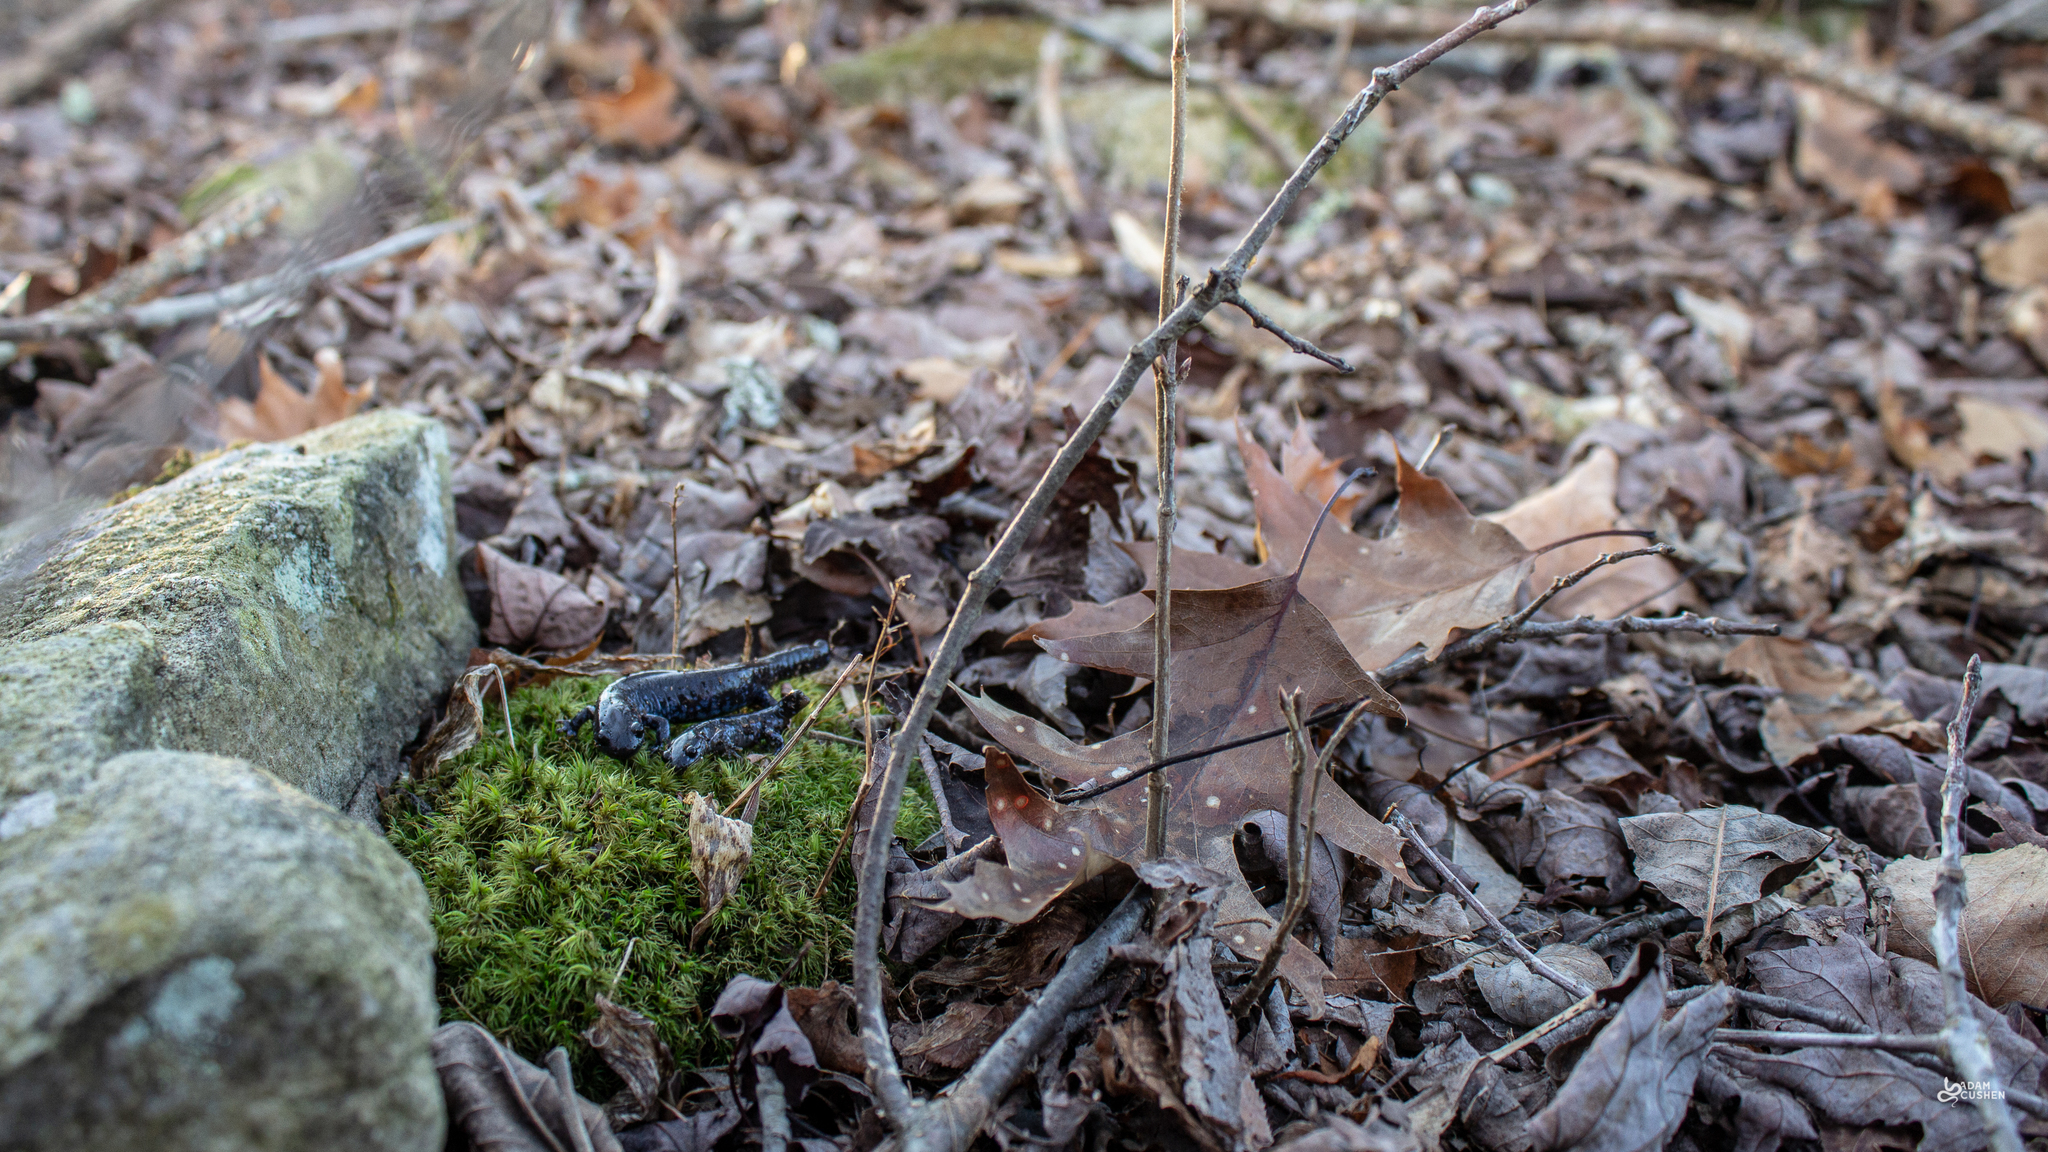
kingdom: Animalia
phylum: Chordata
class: Amphibia
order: Caudata
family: Ambystomatidae
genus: Ambystoma
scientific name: Ambystoma laterale
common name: Blue-spotted salamander
